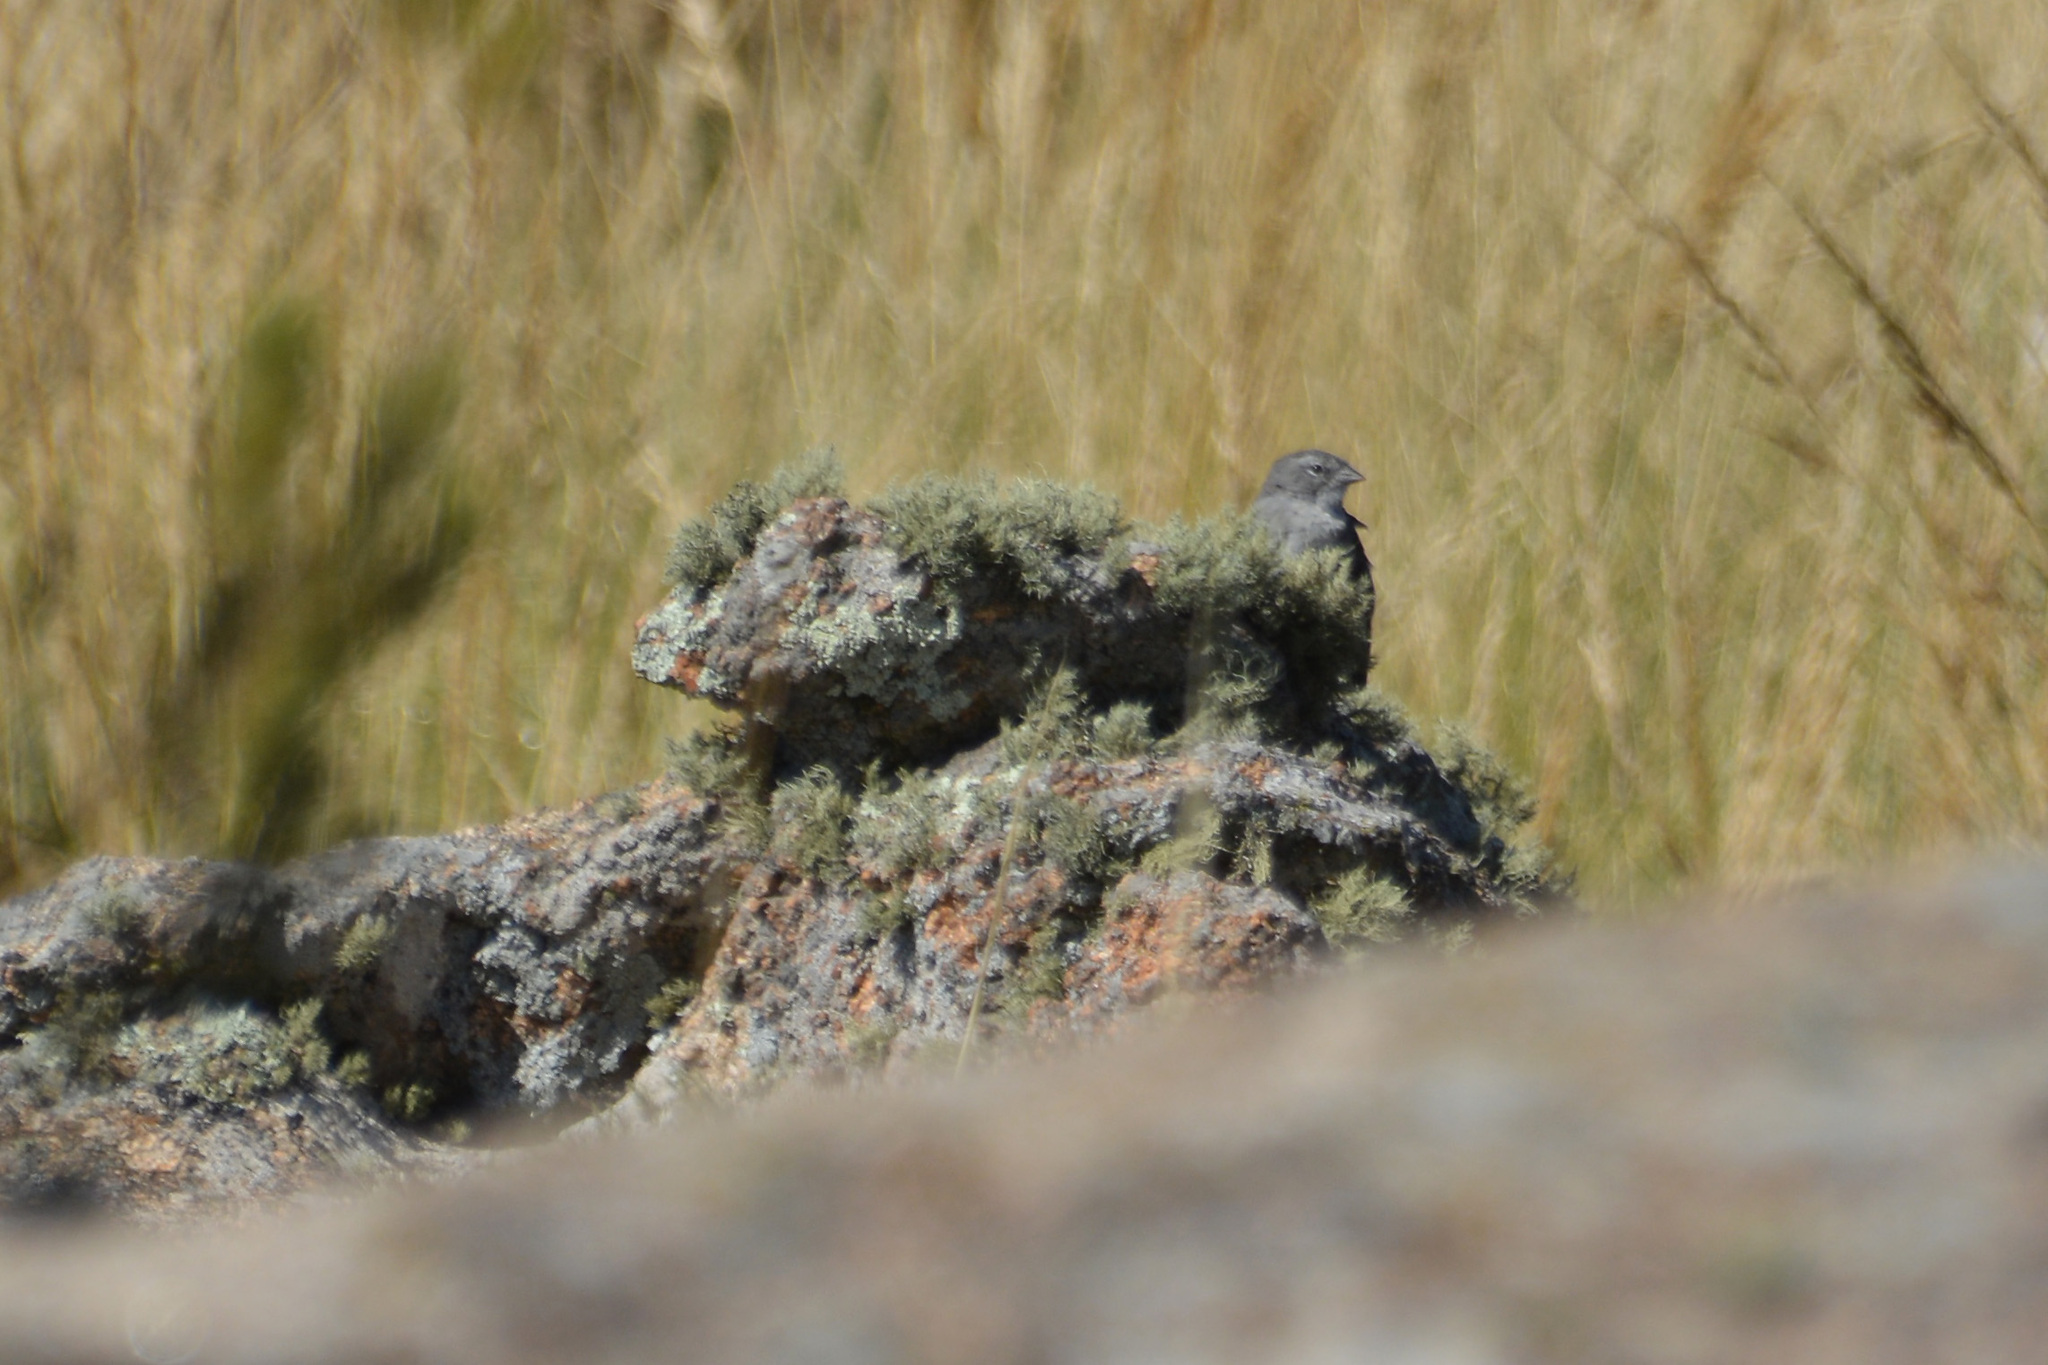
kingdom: Animalia
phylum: Chordata
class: Aves
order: Passeriformes
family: Thraupidae
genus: Geospizopsis
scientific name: Geospizopsis plebejus
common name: Ash-breasted sierra-finch
